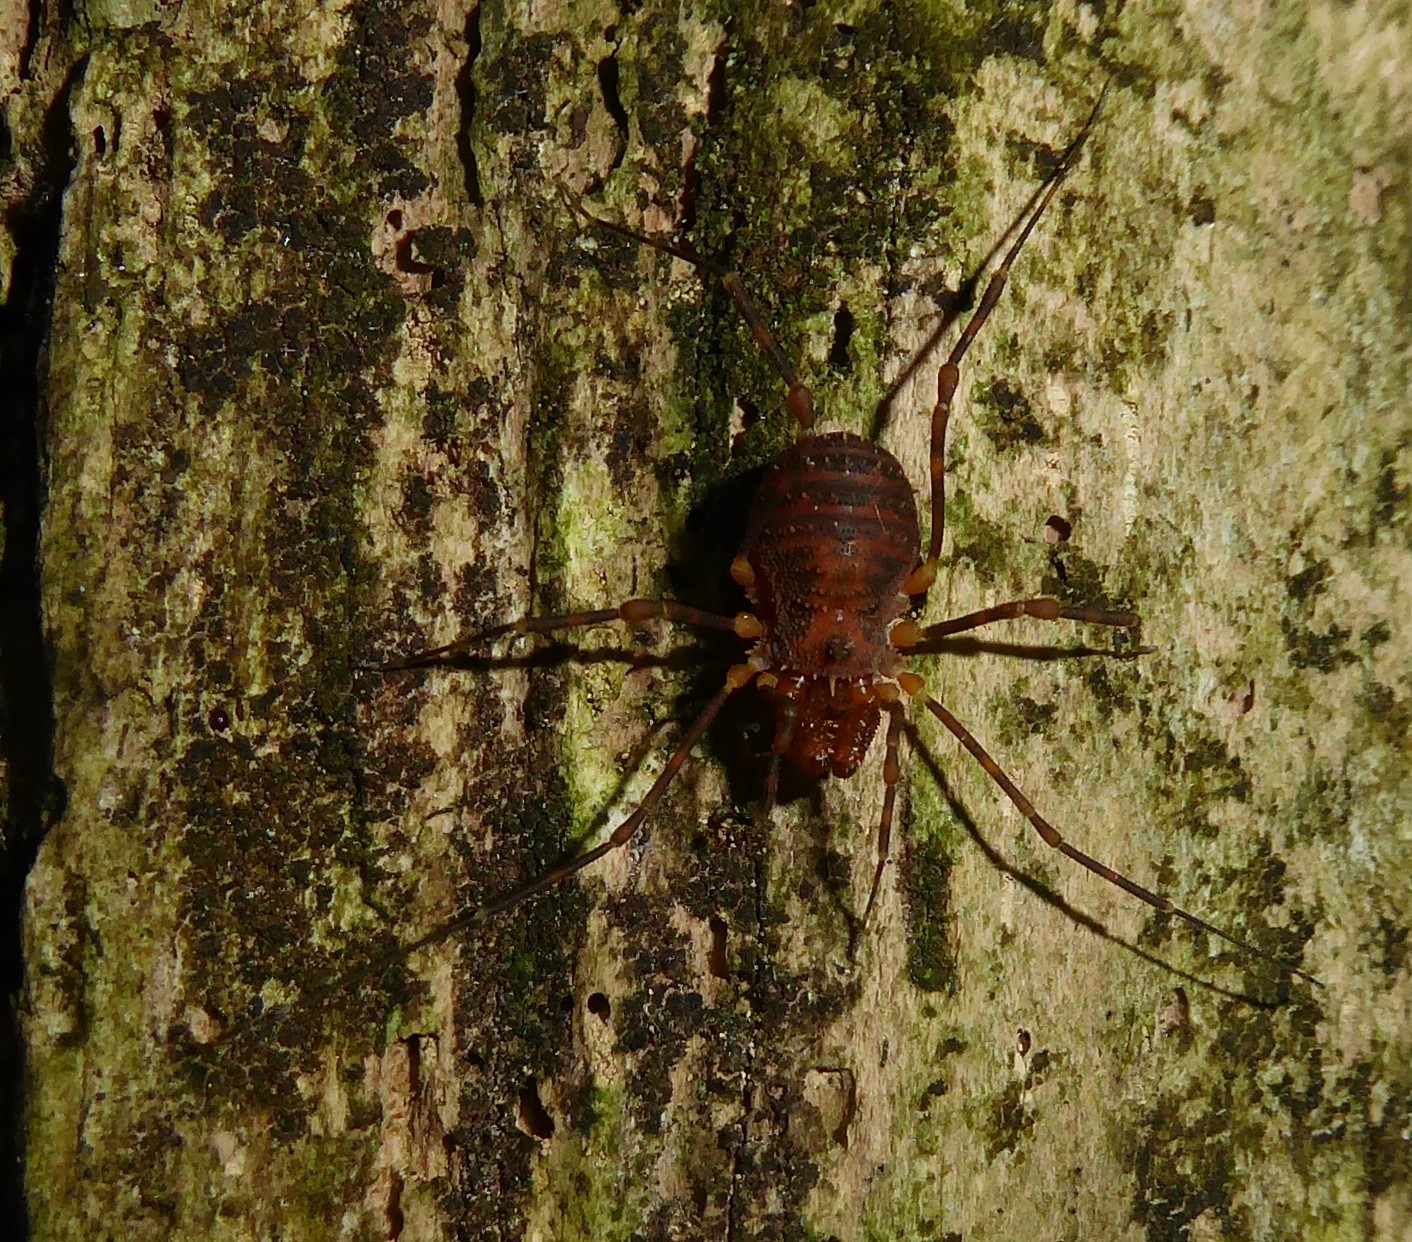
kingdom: Animalia
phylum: Arthropoda
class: Arachnida
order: Opiliones
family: Triaenonychidae
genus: Prasma
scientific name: Prasma sorenseni
